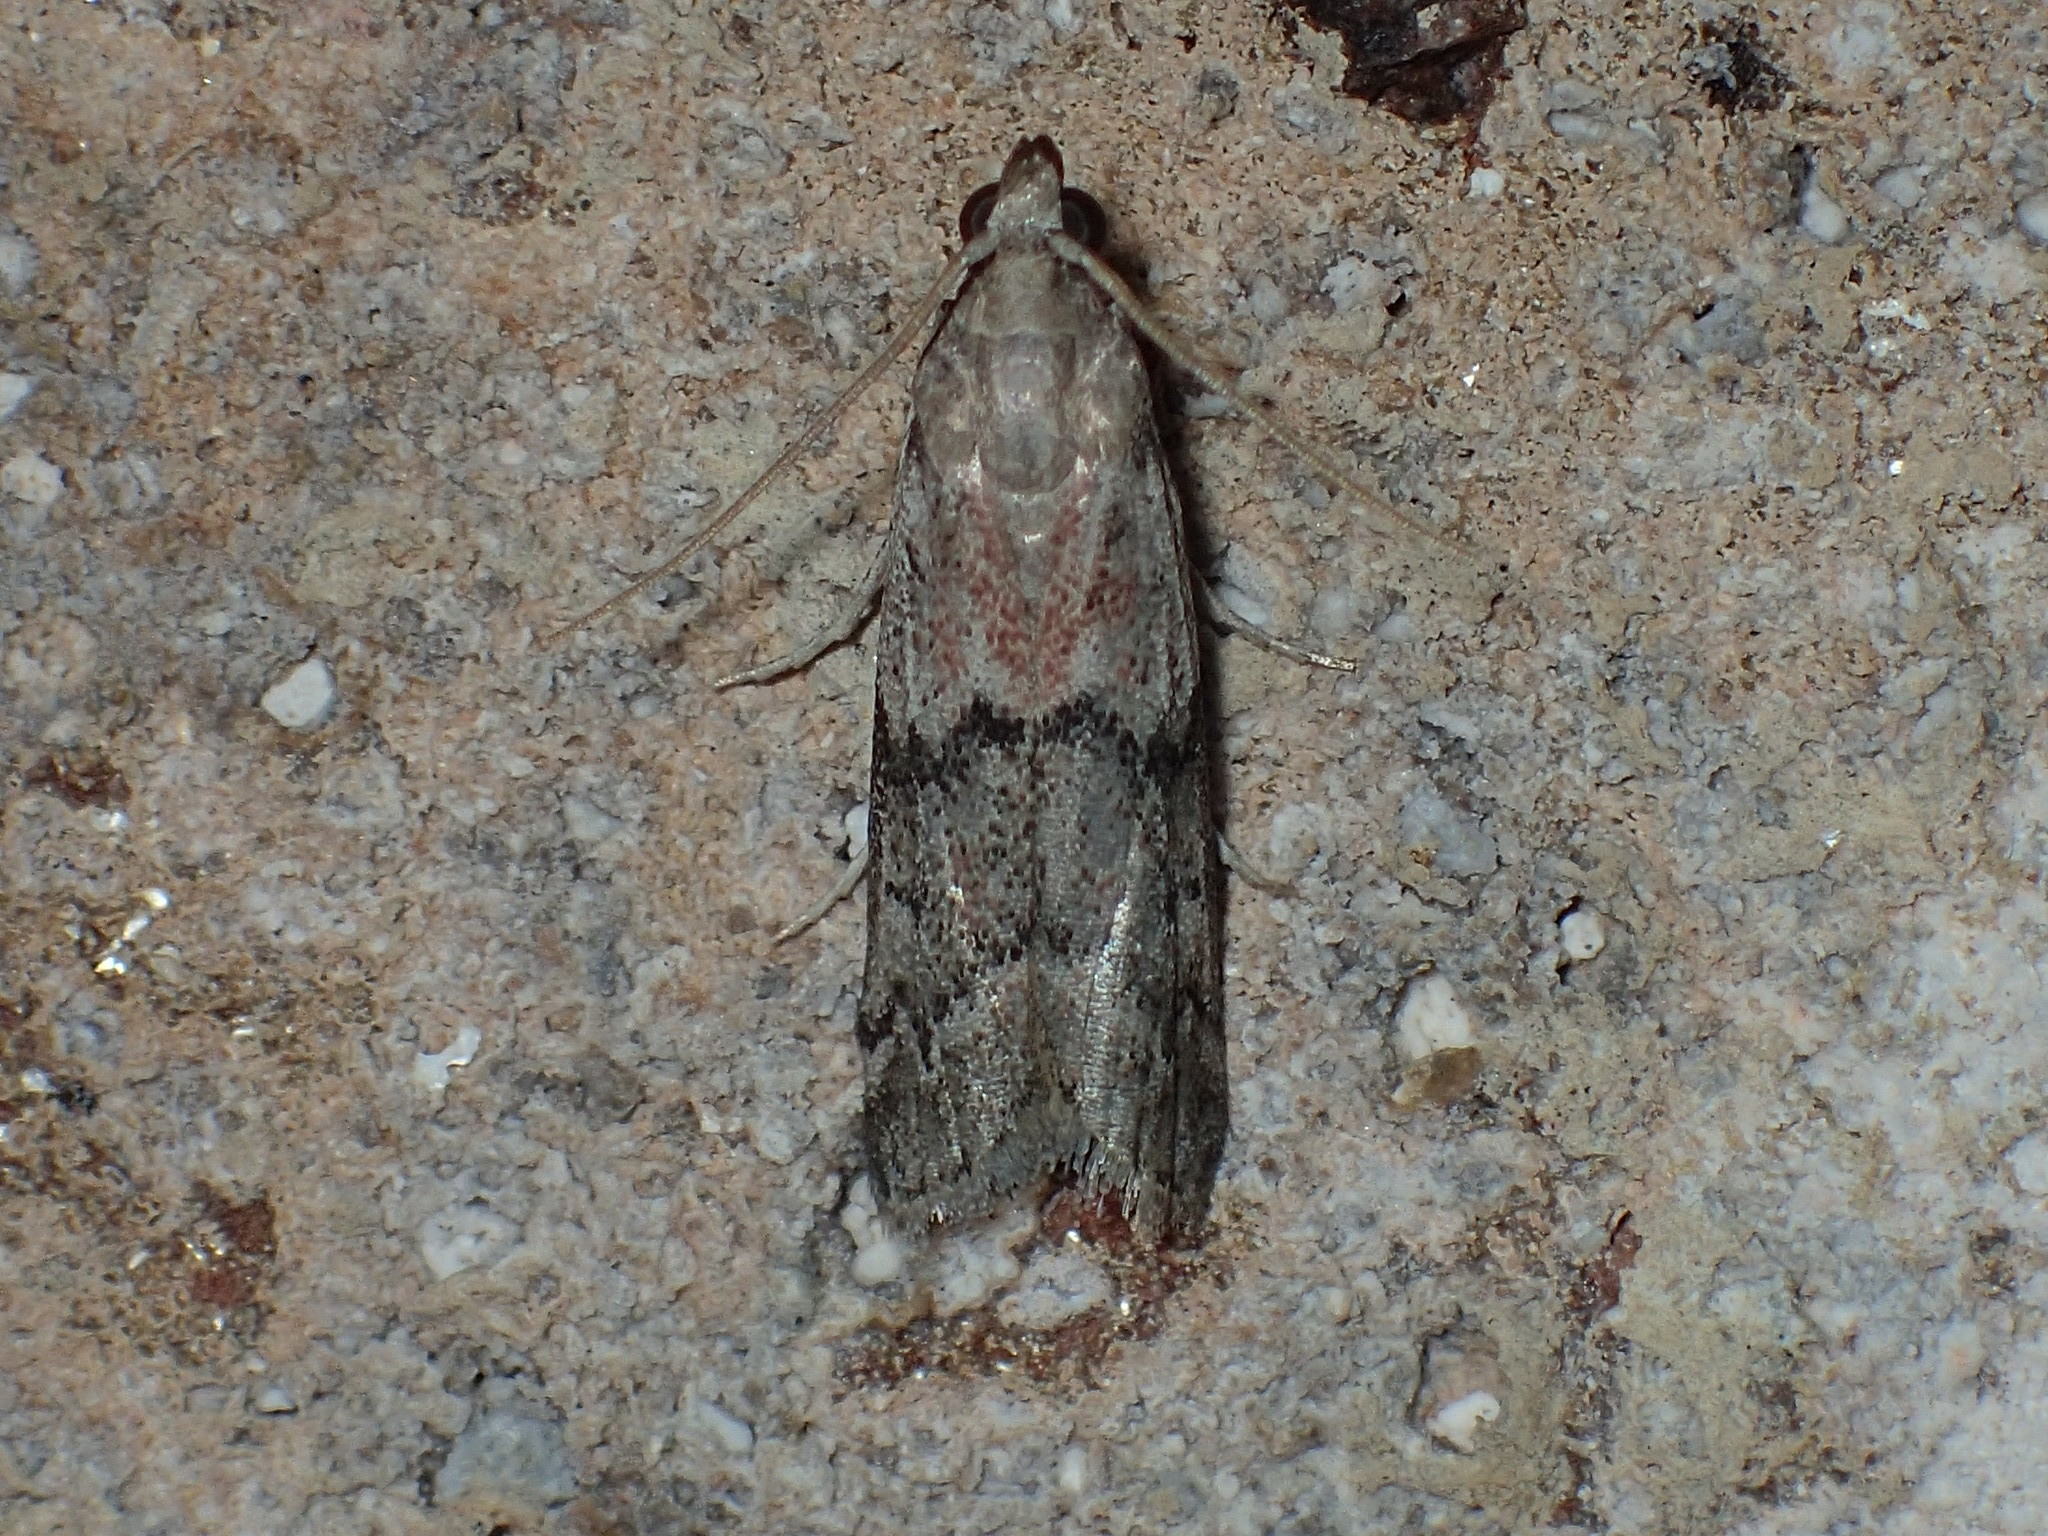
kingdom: Animalia
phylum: Arthropoda
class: Insecta
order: Lepidoptera
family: Pyralidae
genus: Vitula
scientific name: Vitula edmandsii
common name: Dried fruit moth
